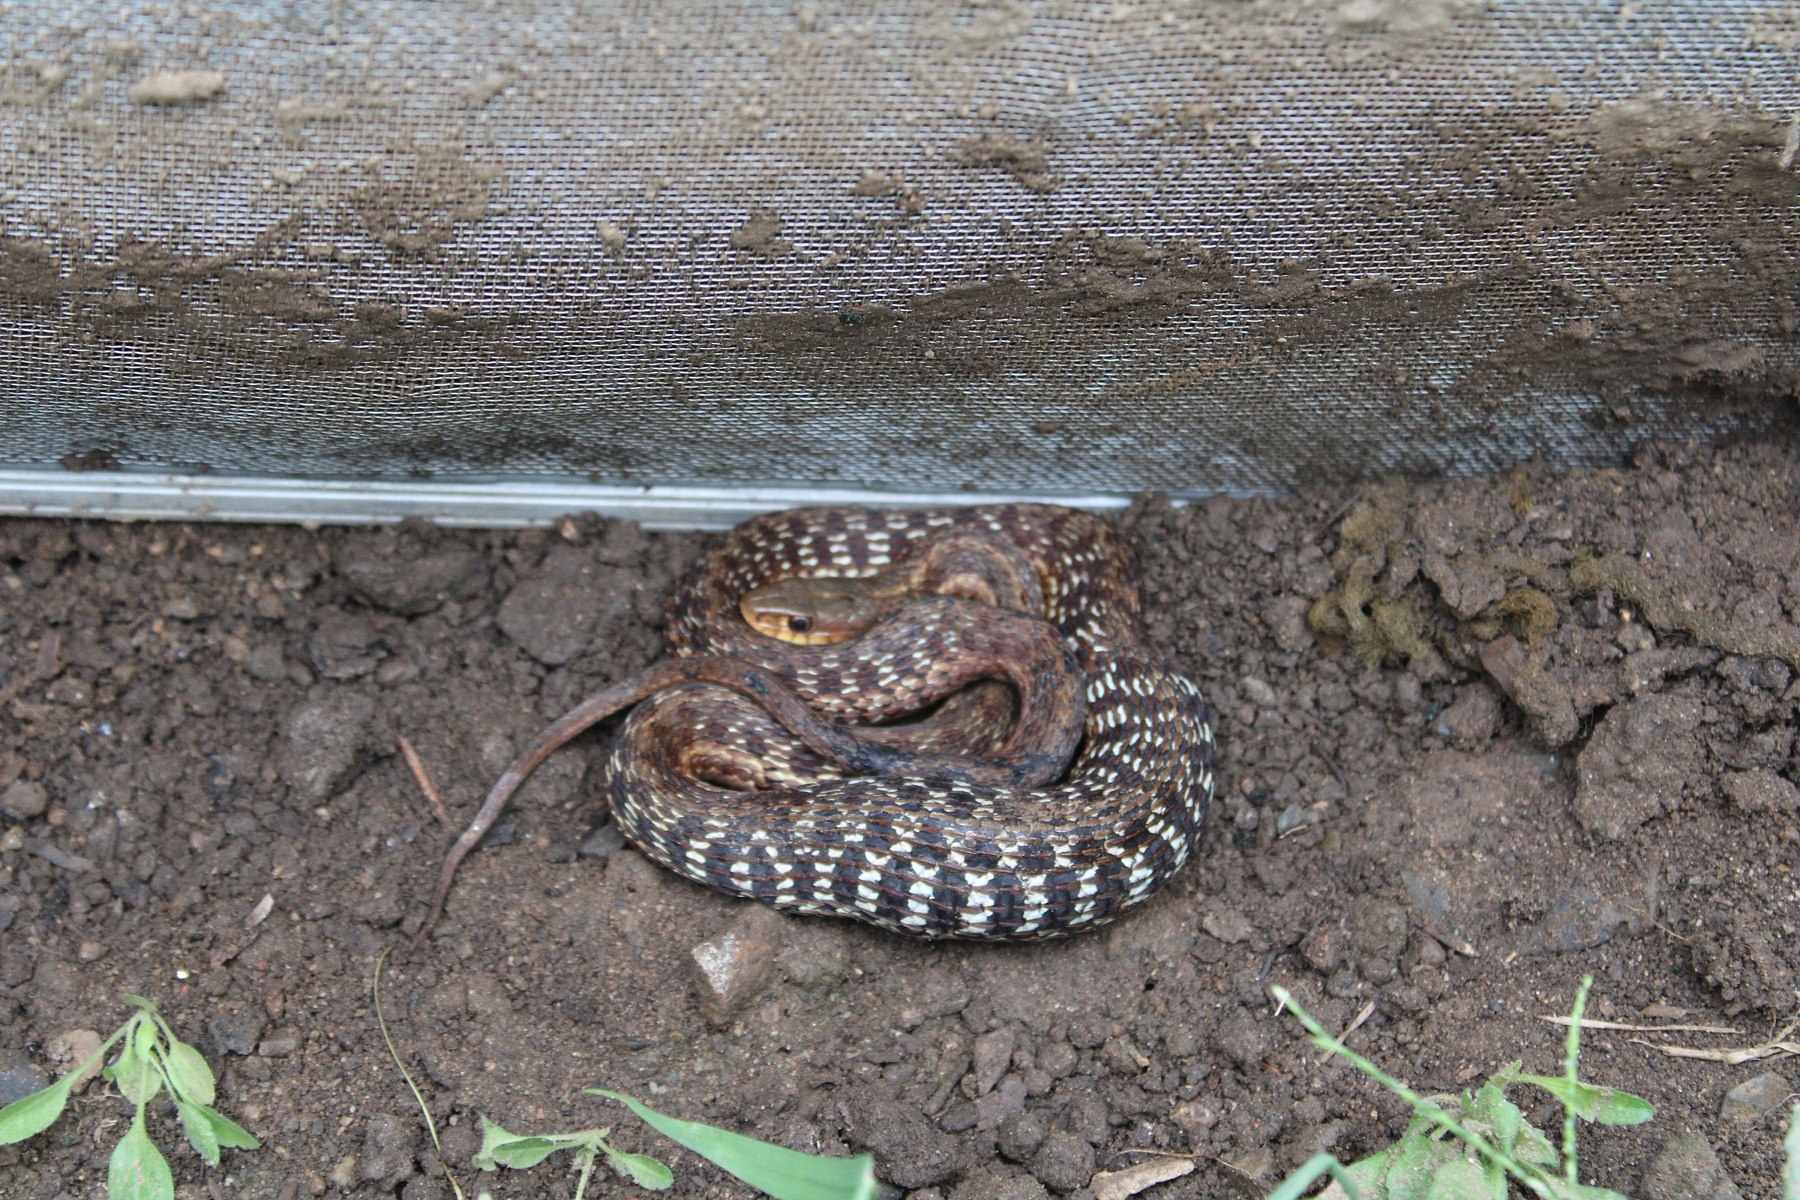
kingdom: Animalia
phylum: Chordata
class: Squamata
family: Colubridae
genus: Thamnophis
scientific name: Thamnophis sirtalis
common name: Common garter snake
